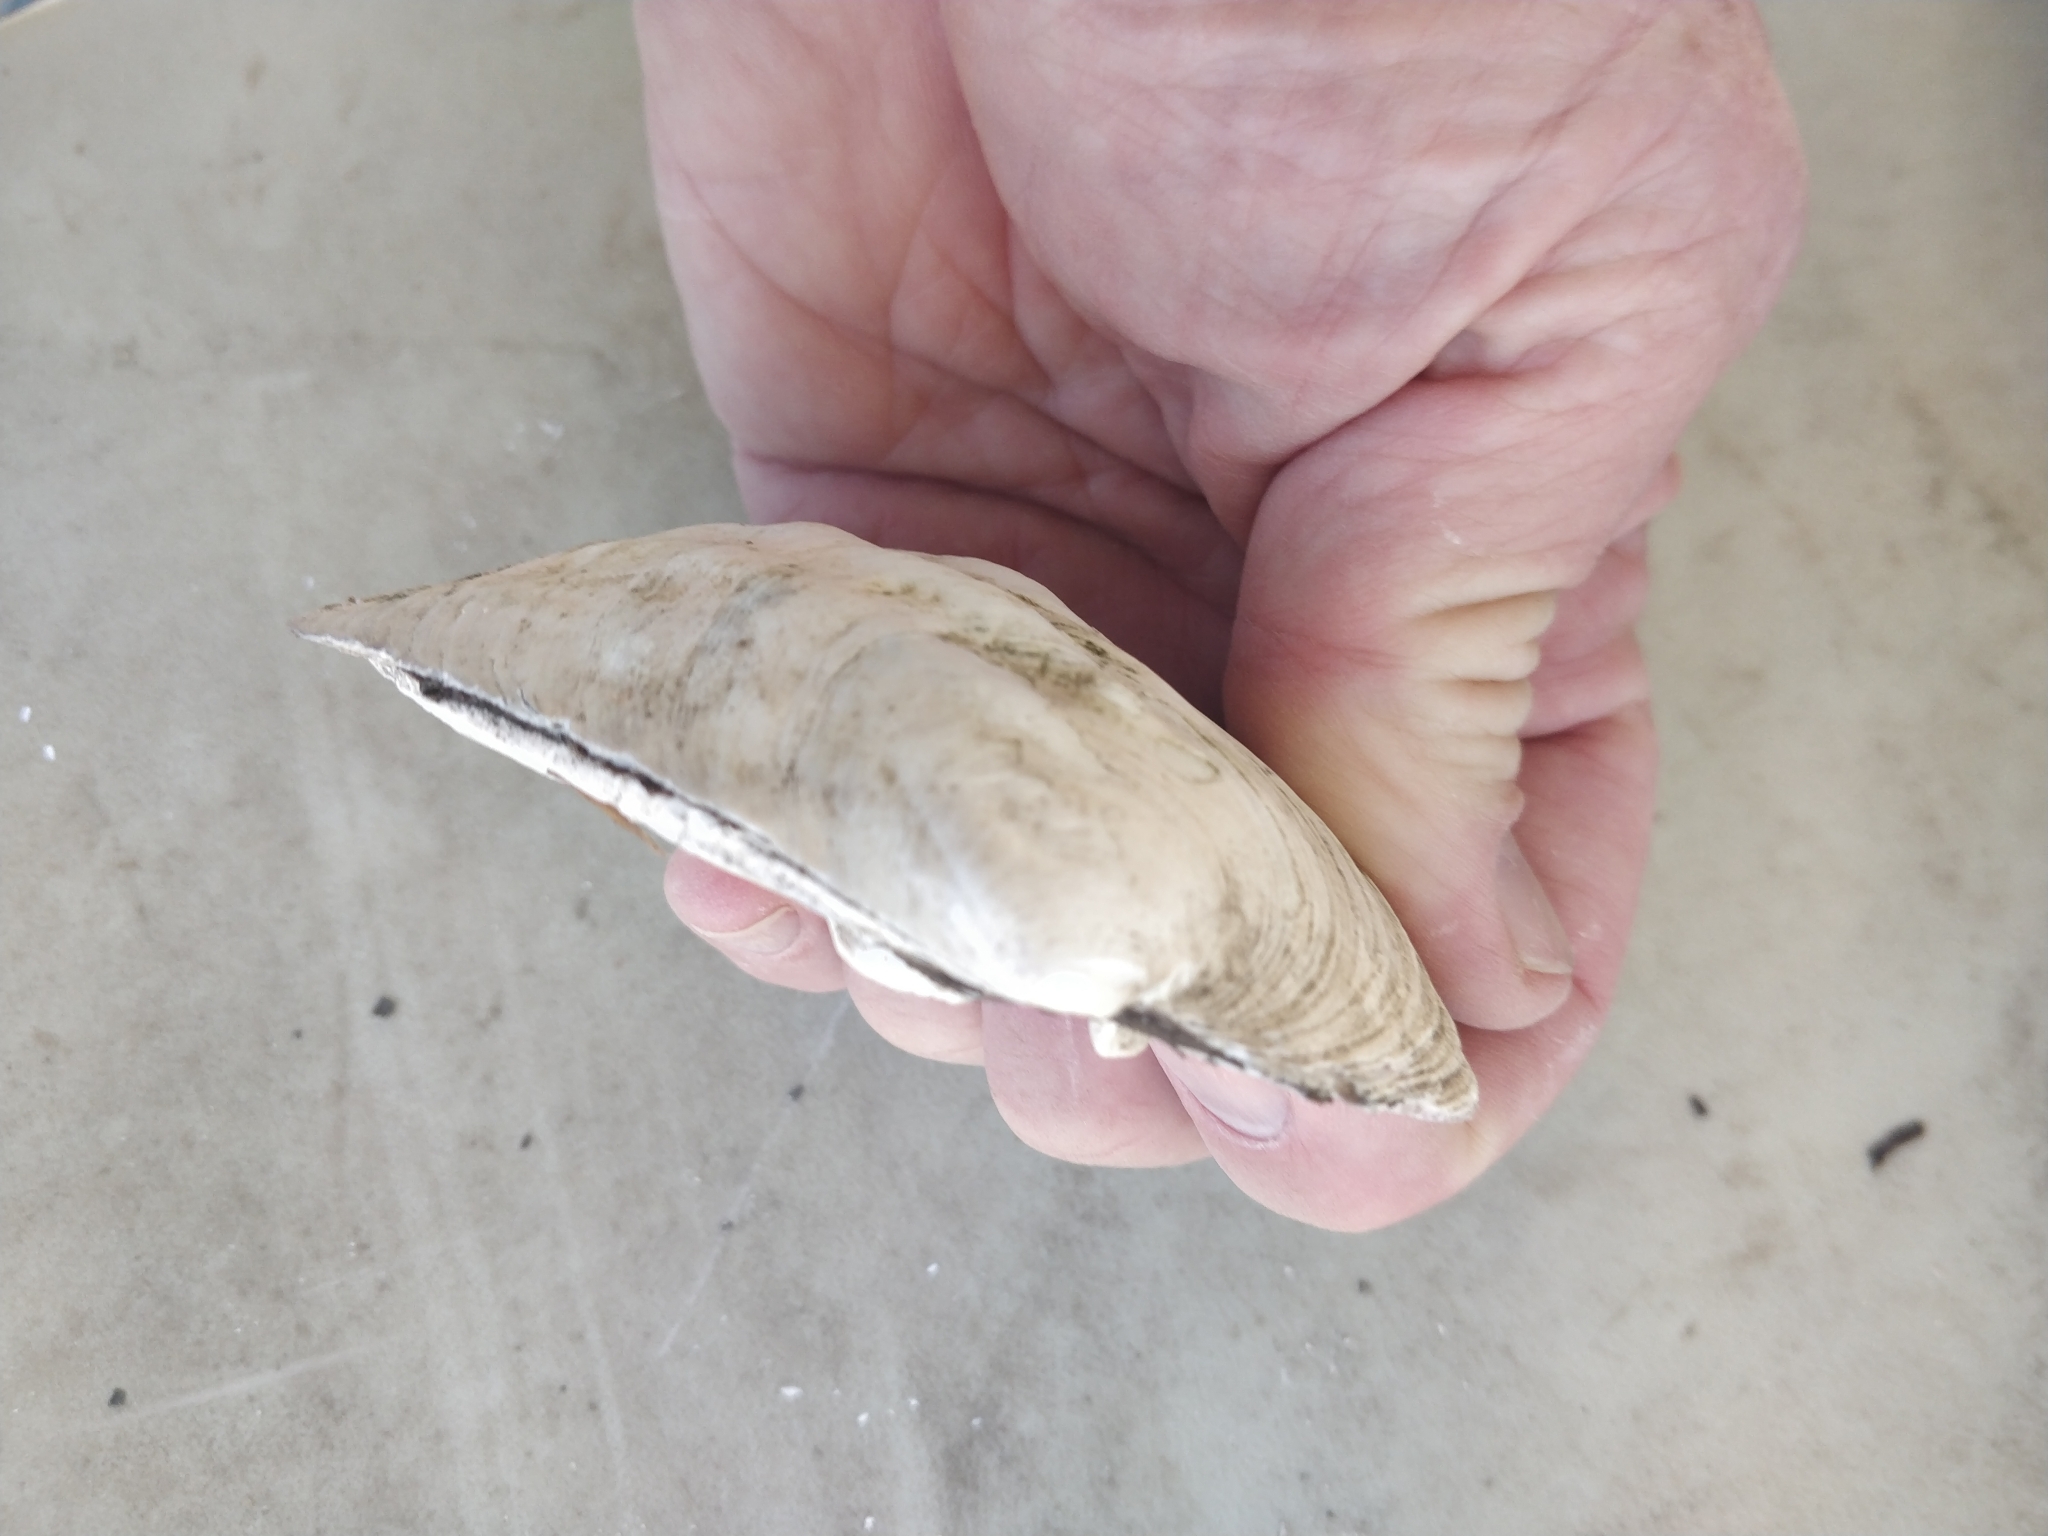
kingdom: Animalia
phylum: Mollusca
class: Bivalvia
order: Unionida
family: Unionidae
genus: Amblema
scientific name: Amblema plicata
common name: Threeridge
